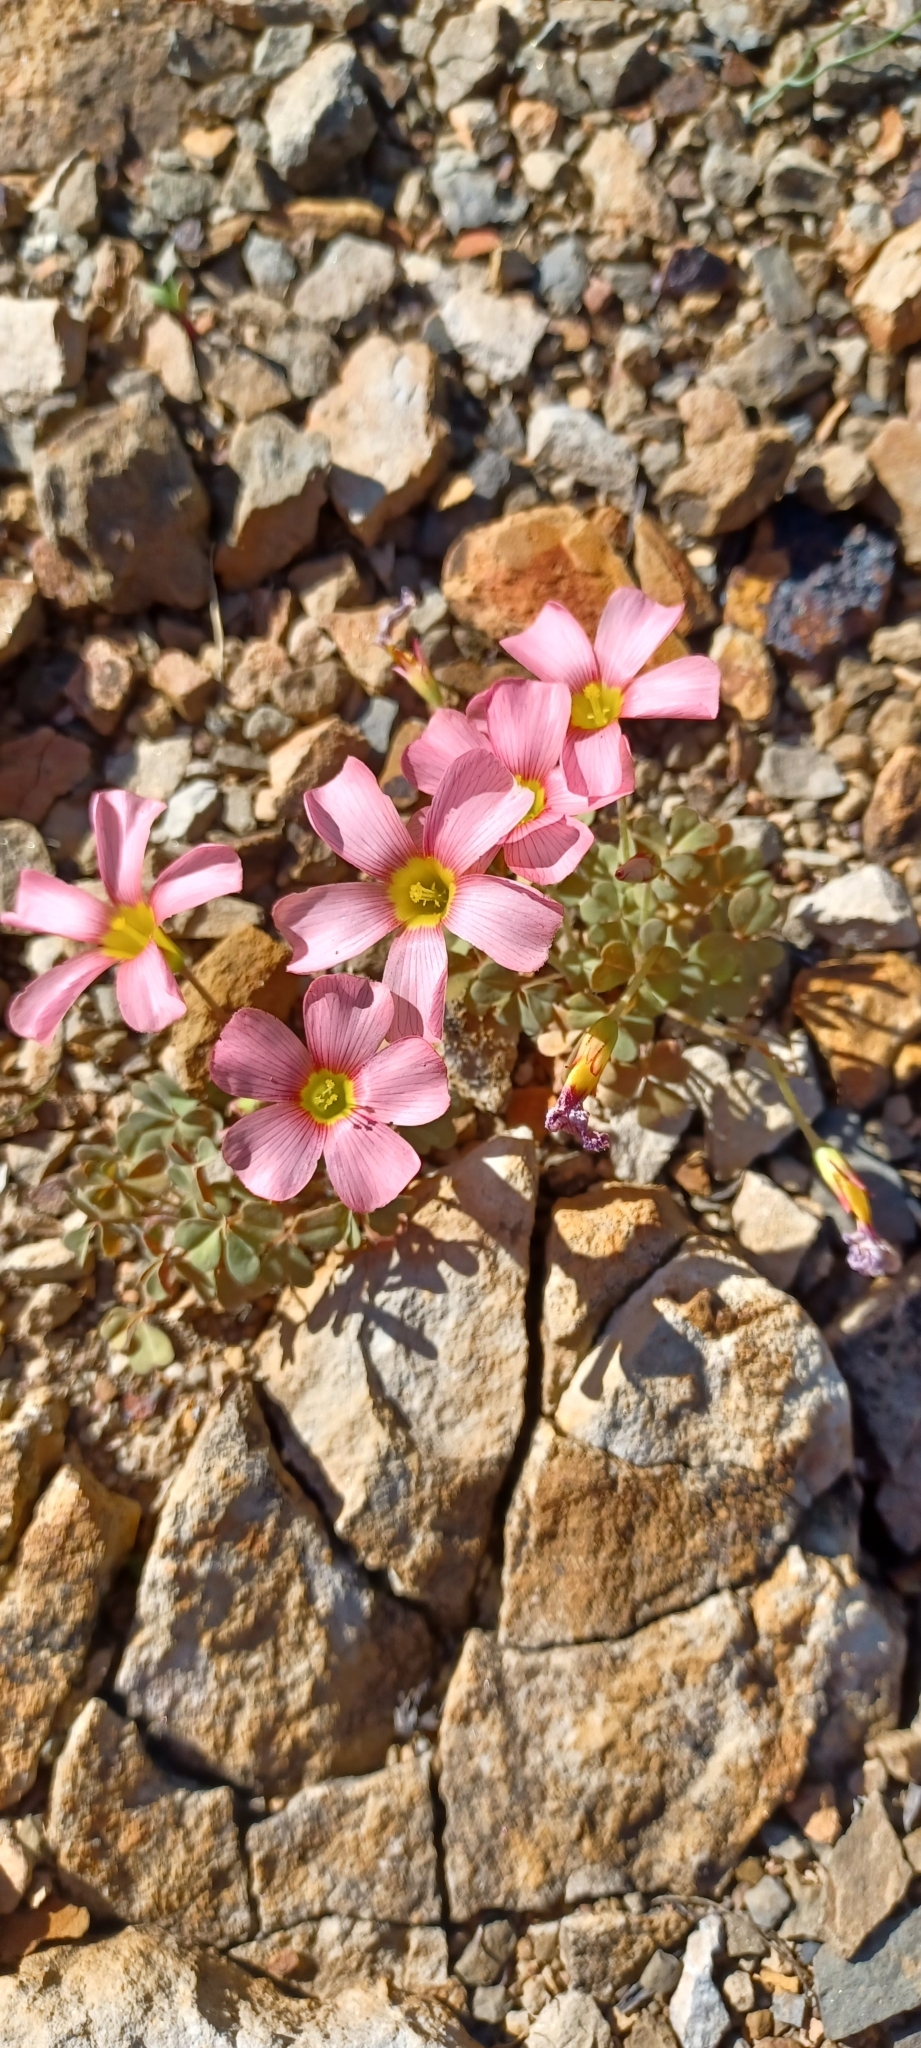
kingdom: Plantae
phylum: Tracheophyta
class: Magnoliopsida
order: Oxalidales
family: Oxalidaceae
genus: Oxalis
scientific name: Oxalis obtusa
